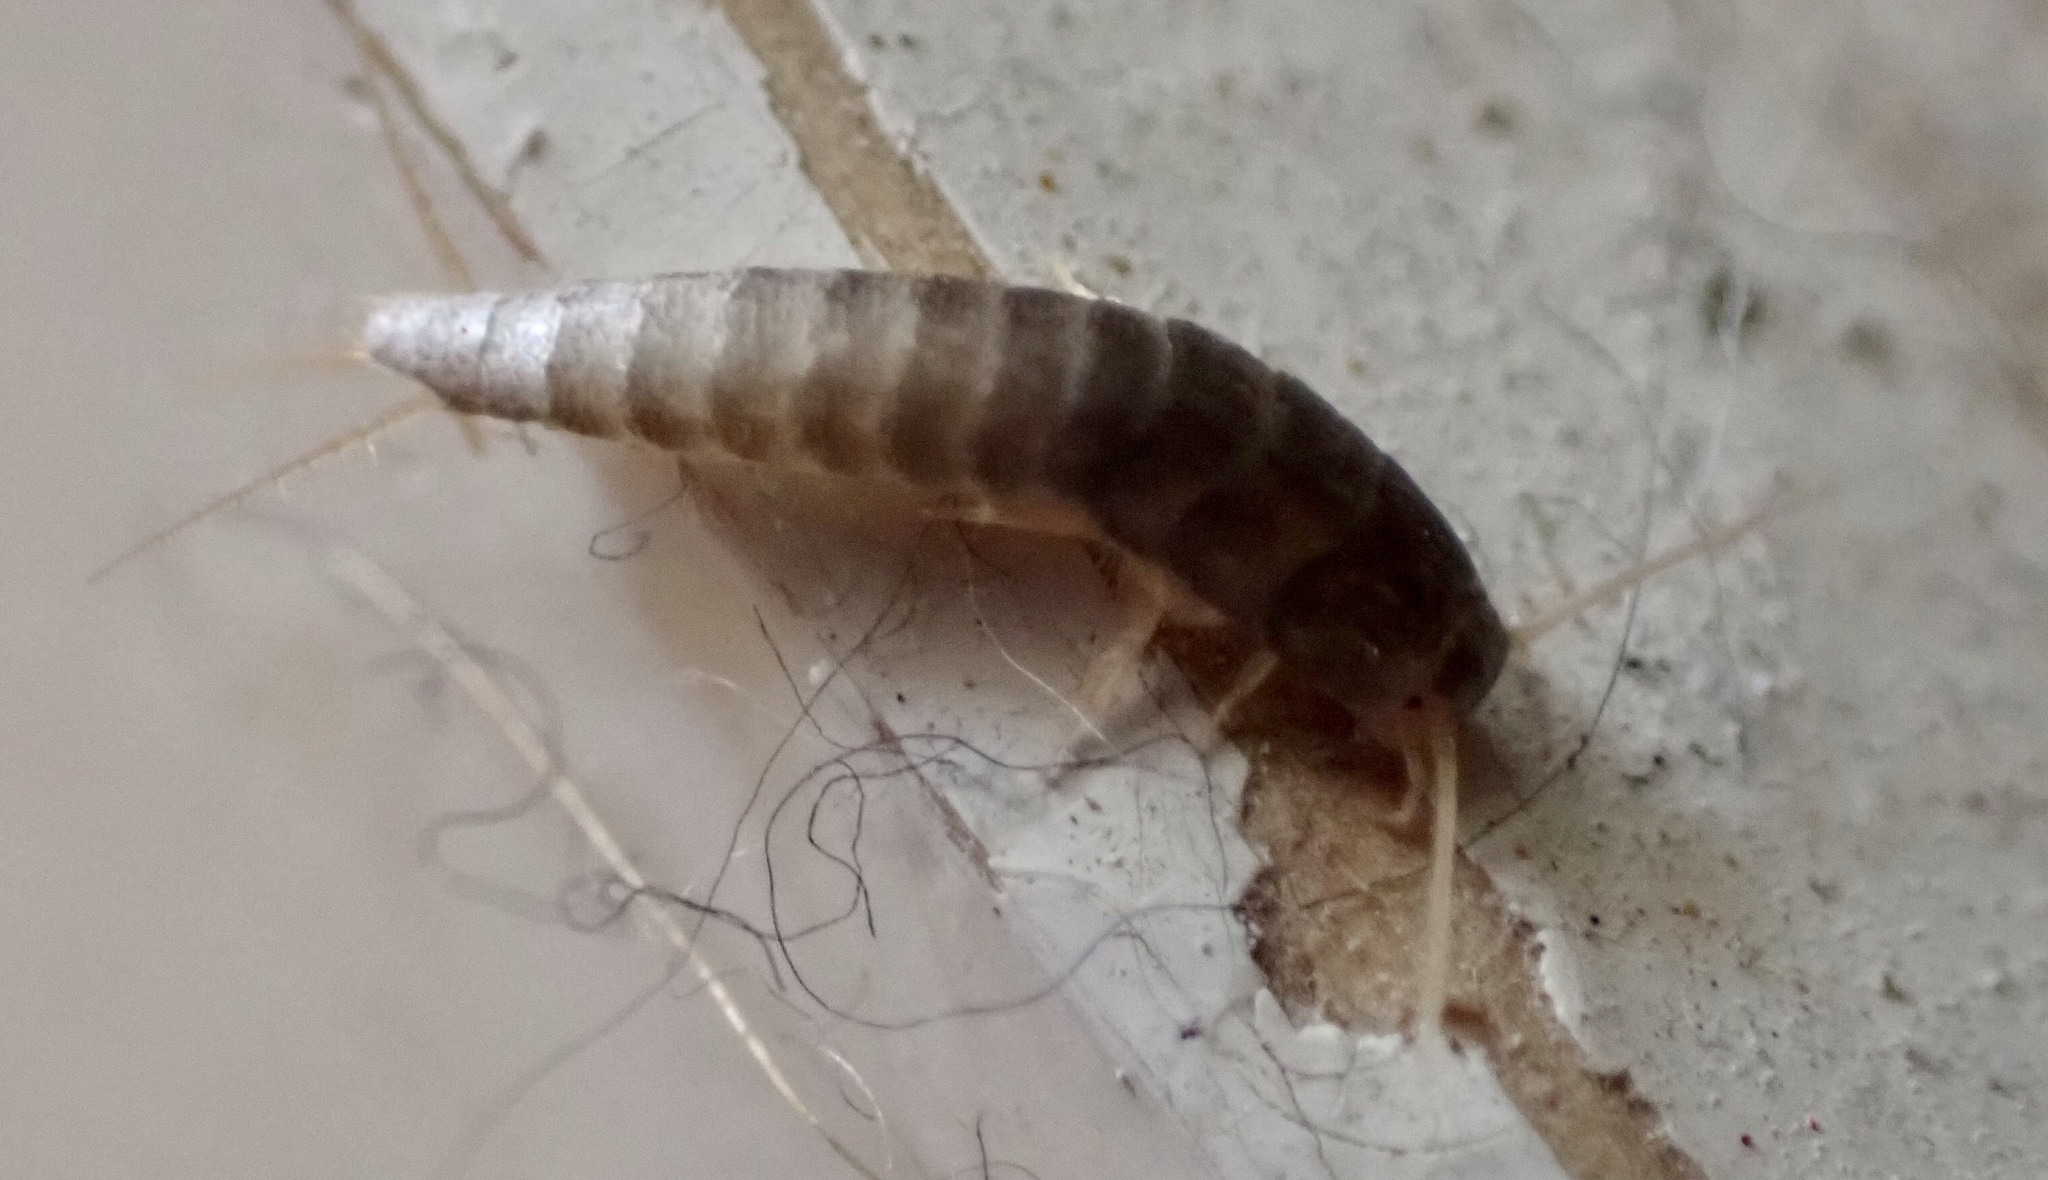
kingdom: Animalia
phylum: Arthropoda
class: Insecta
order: Zygentoma
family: Lepismatidae
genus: Lepisma
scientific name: Lepisma saccharinum
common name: Silverfish
